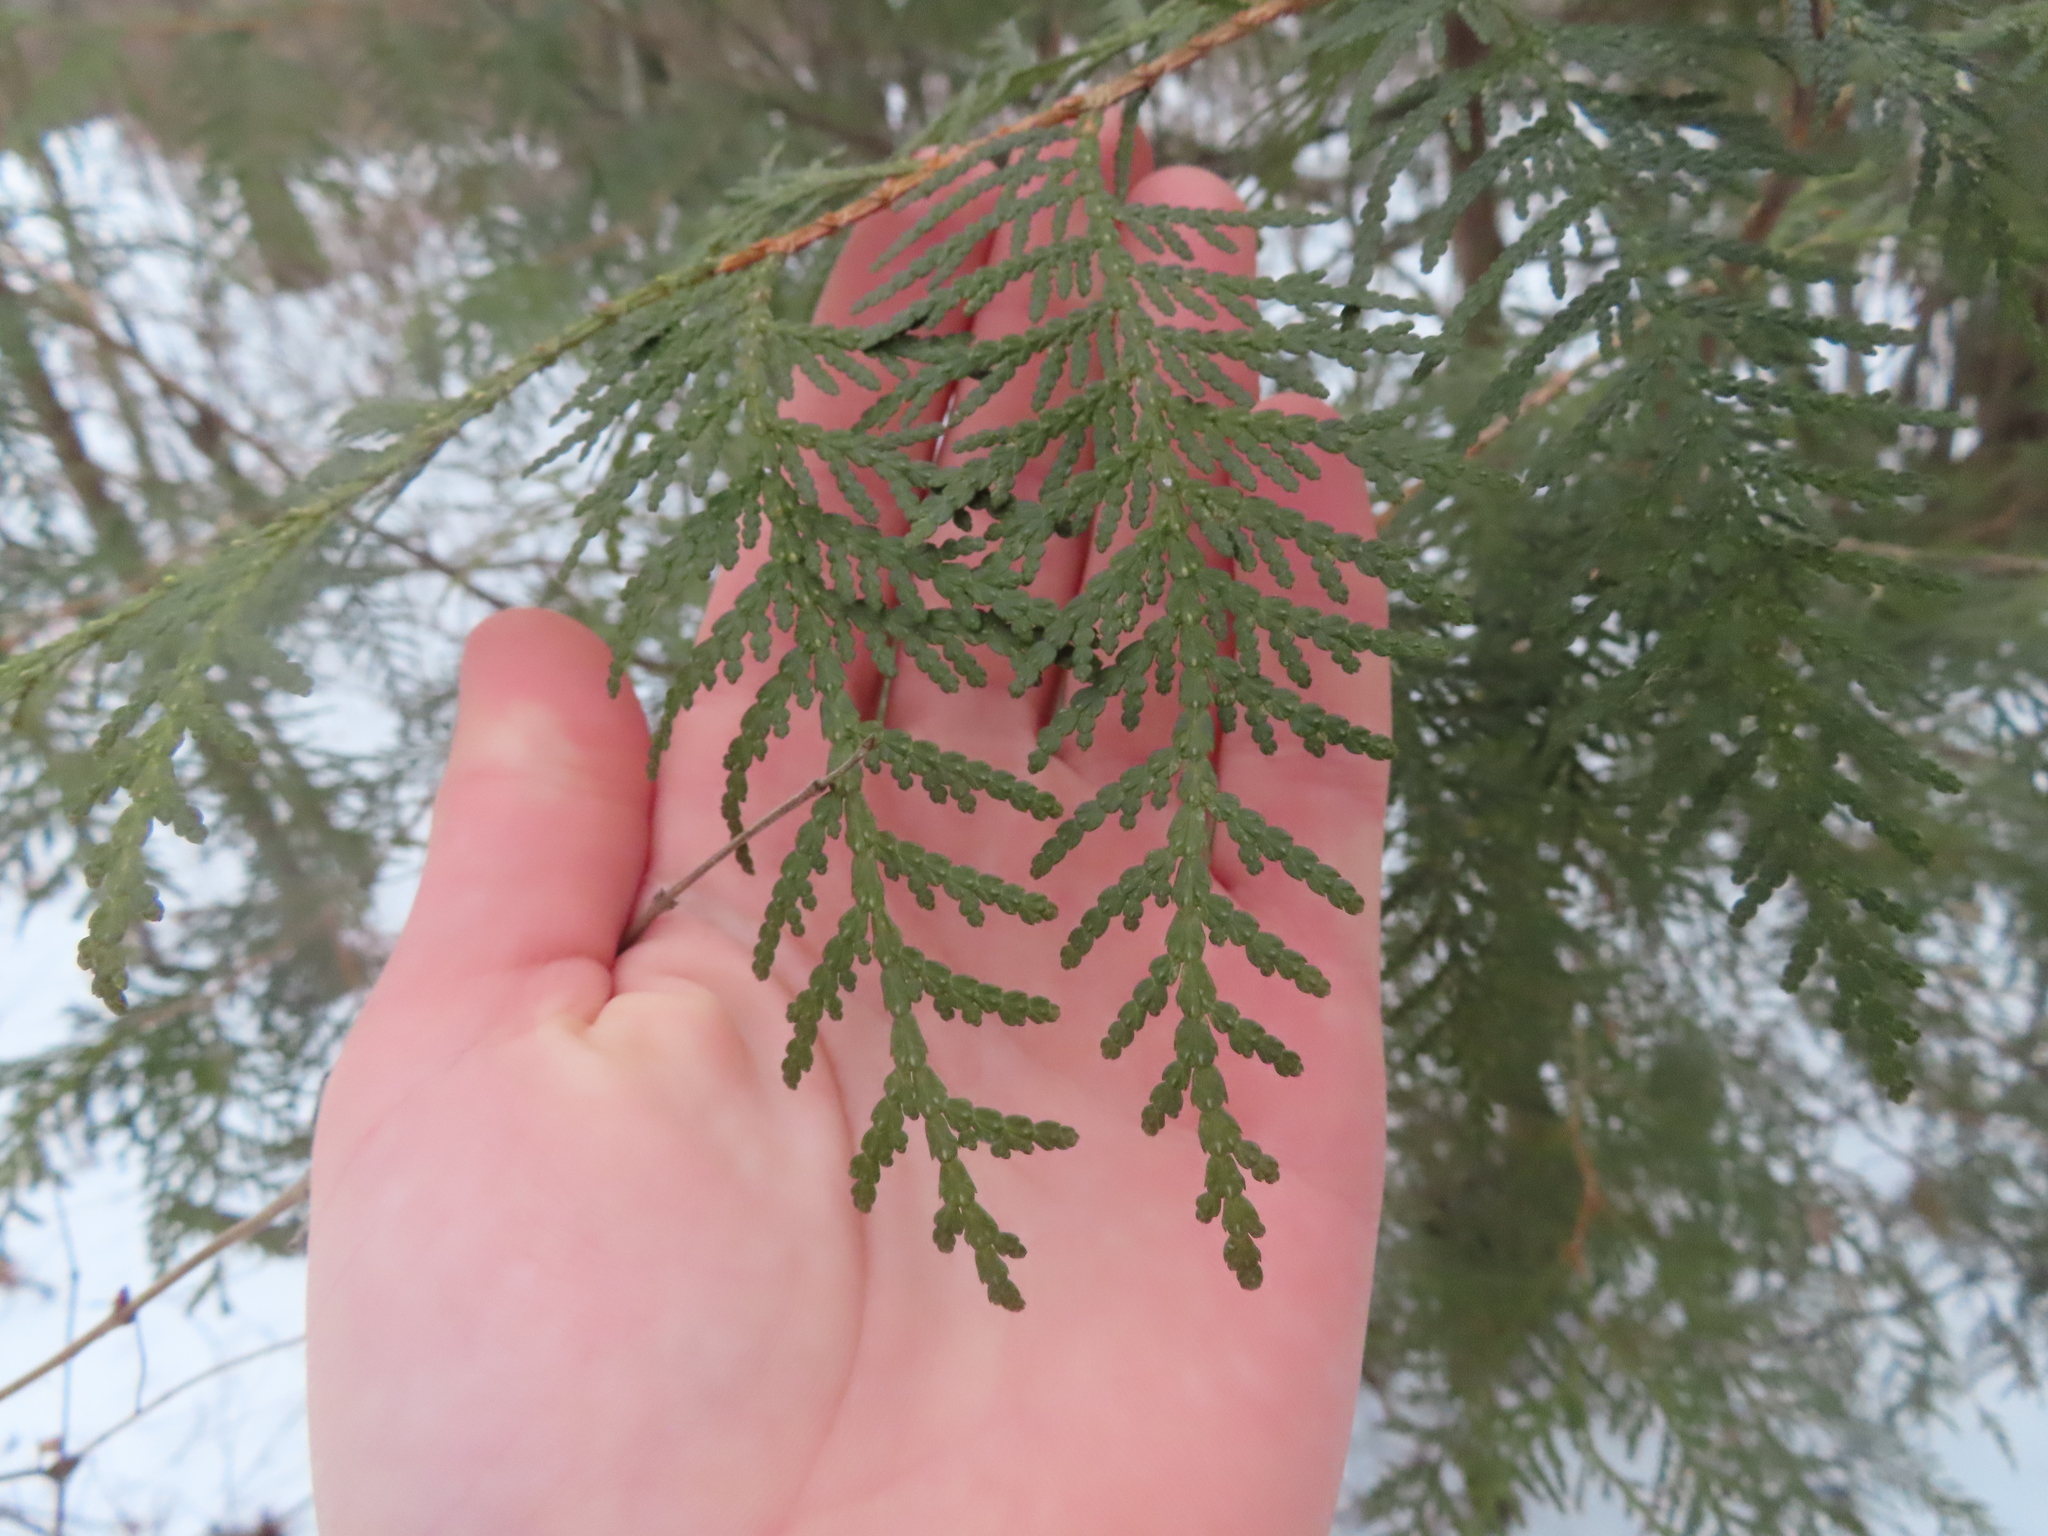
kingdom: Plantae
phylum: Tracheophyta
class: Pinopsida
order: Pinales
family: Cupressaceae
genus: Thuja
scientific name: Thuja occidentalis
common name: Northern white-cedar
